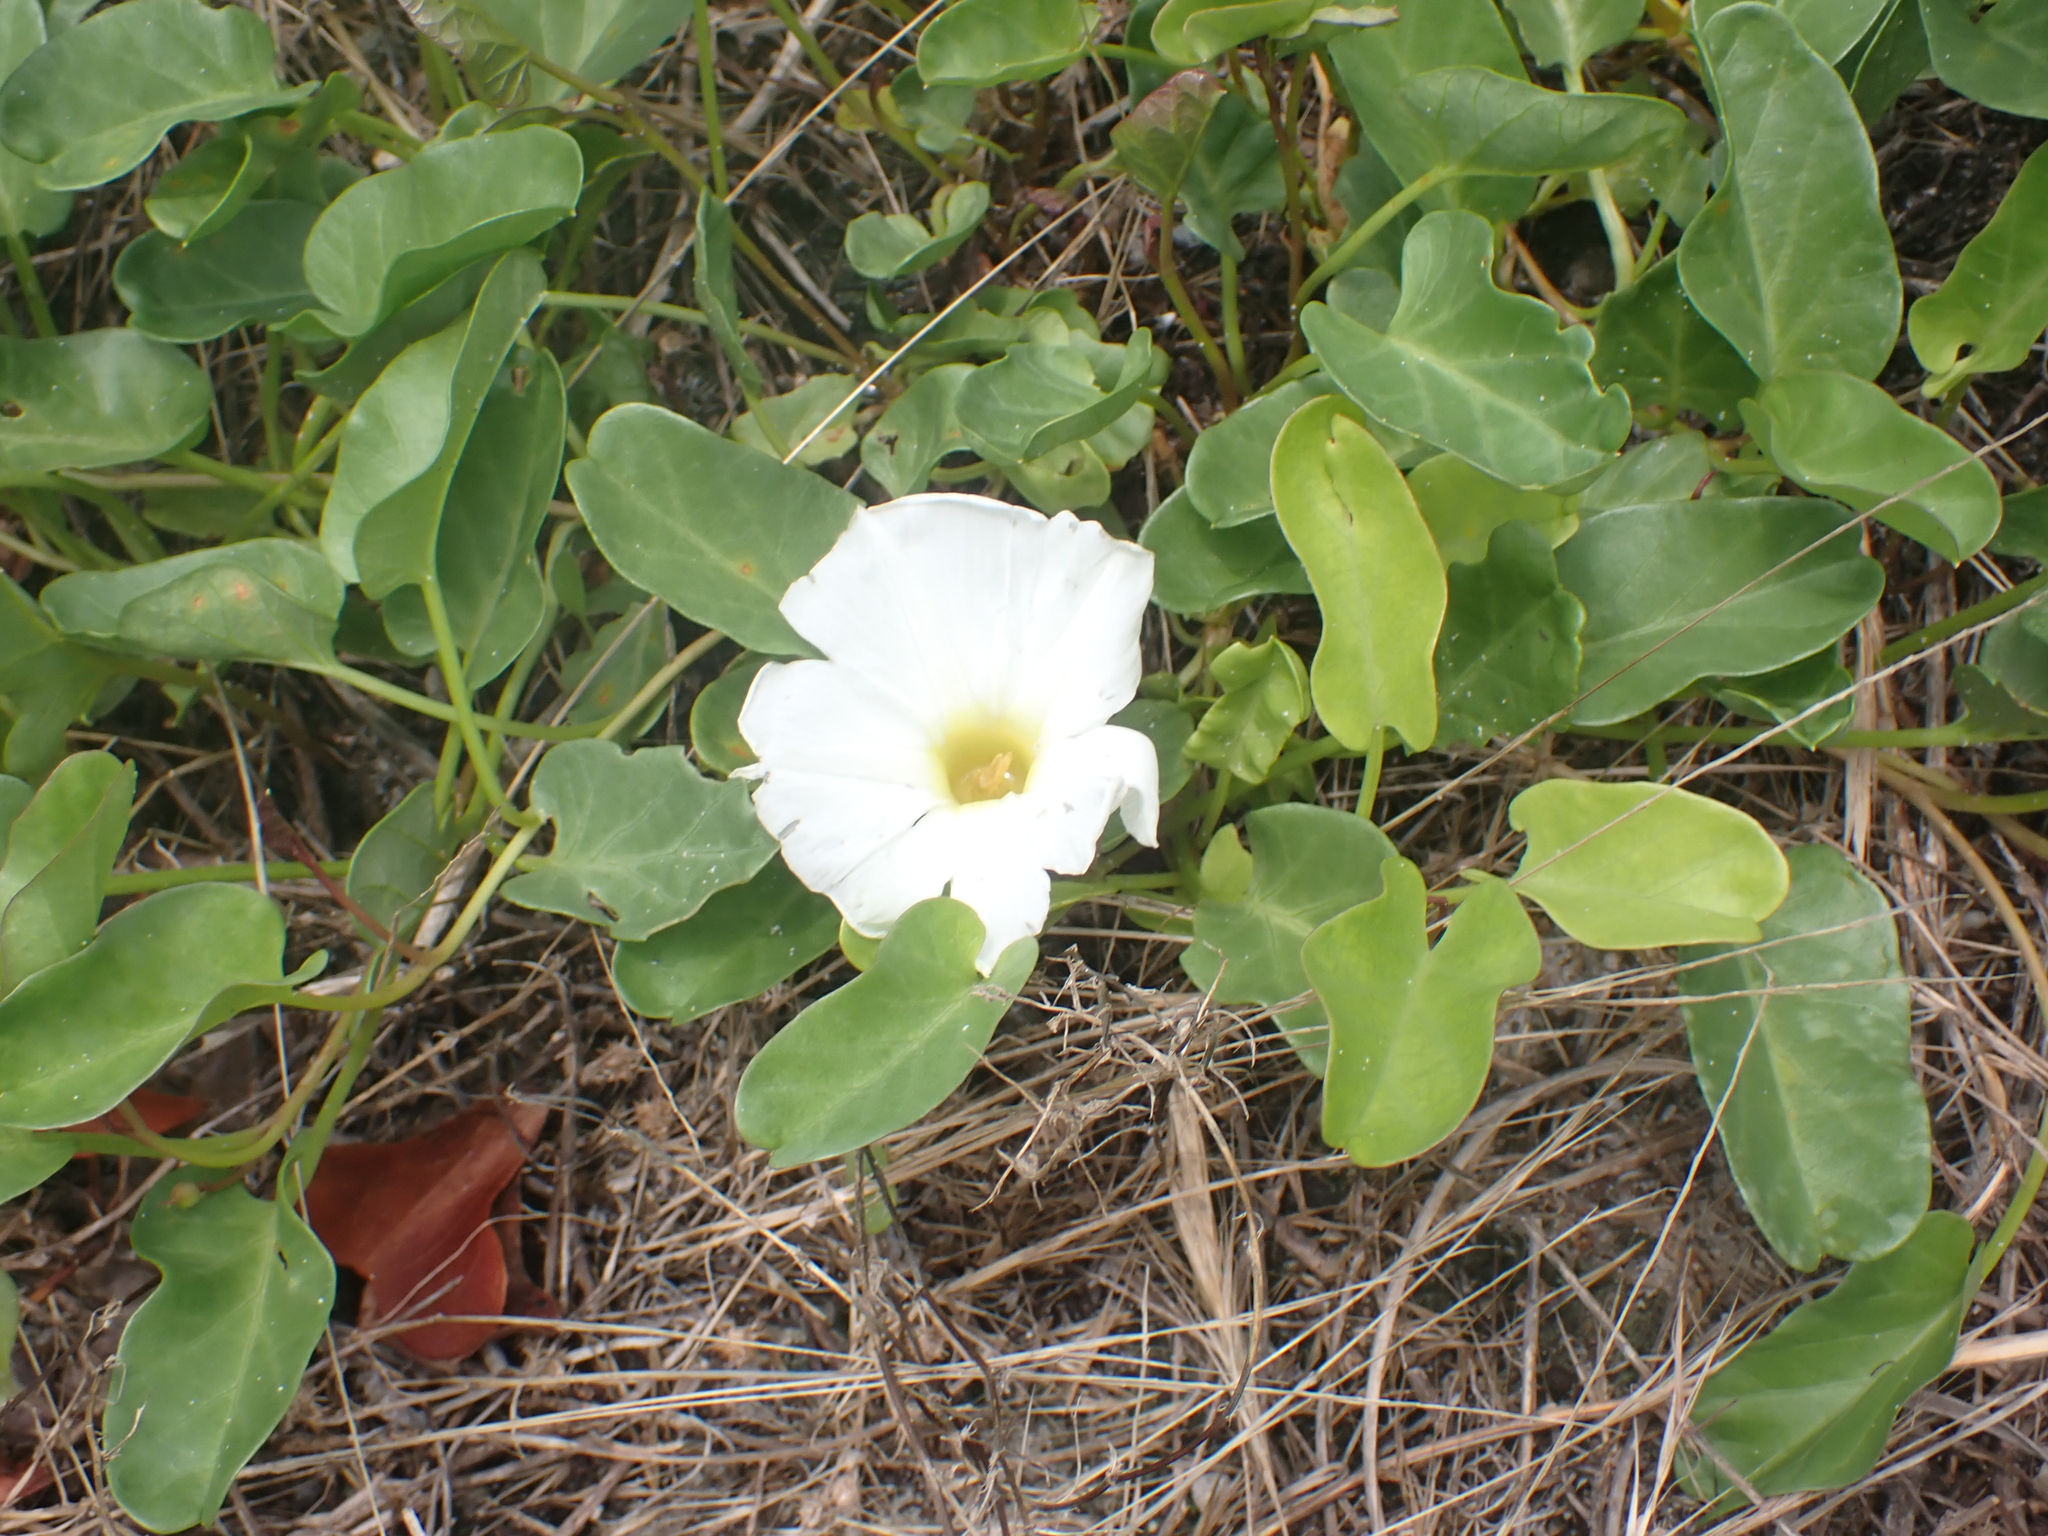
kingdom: Plantae
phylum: Tracheophyta
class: Magnoliopsida
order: Solanales
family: Convolvulaceae
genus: Ipomoea
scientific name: Ipomoea imperati
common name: Fiddle-leaf morning-glory
